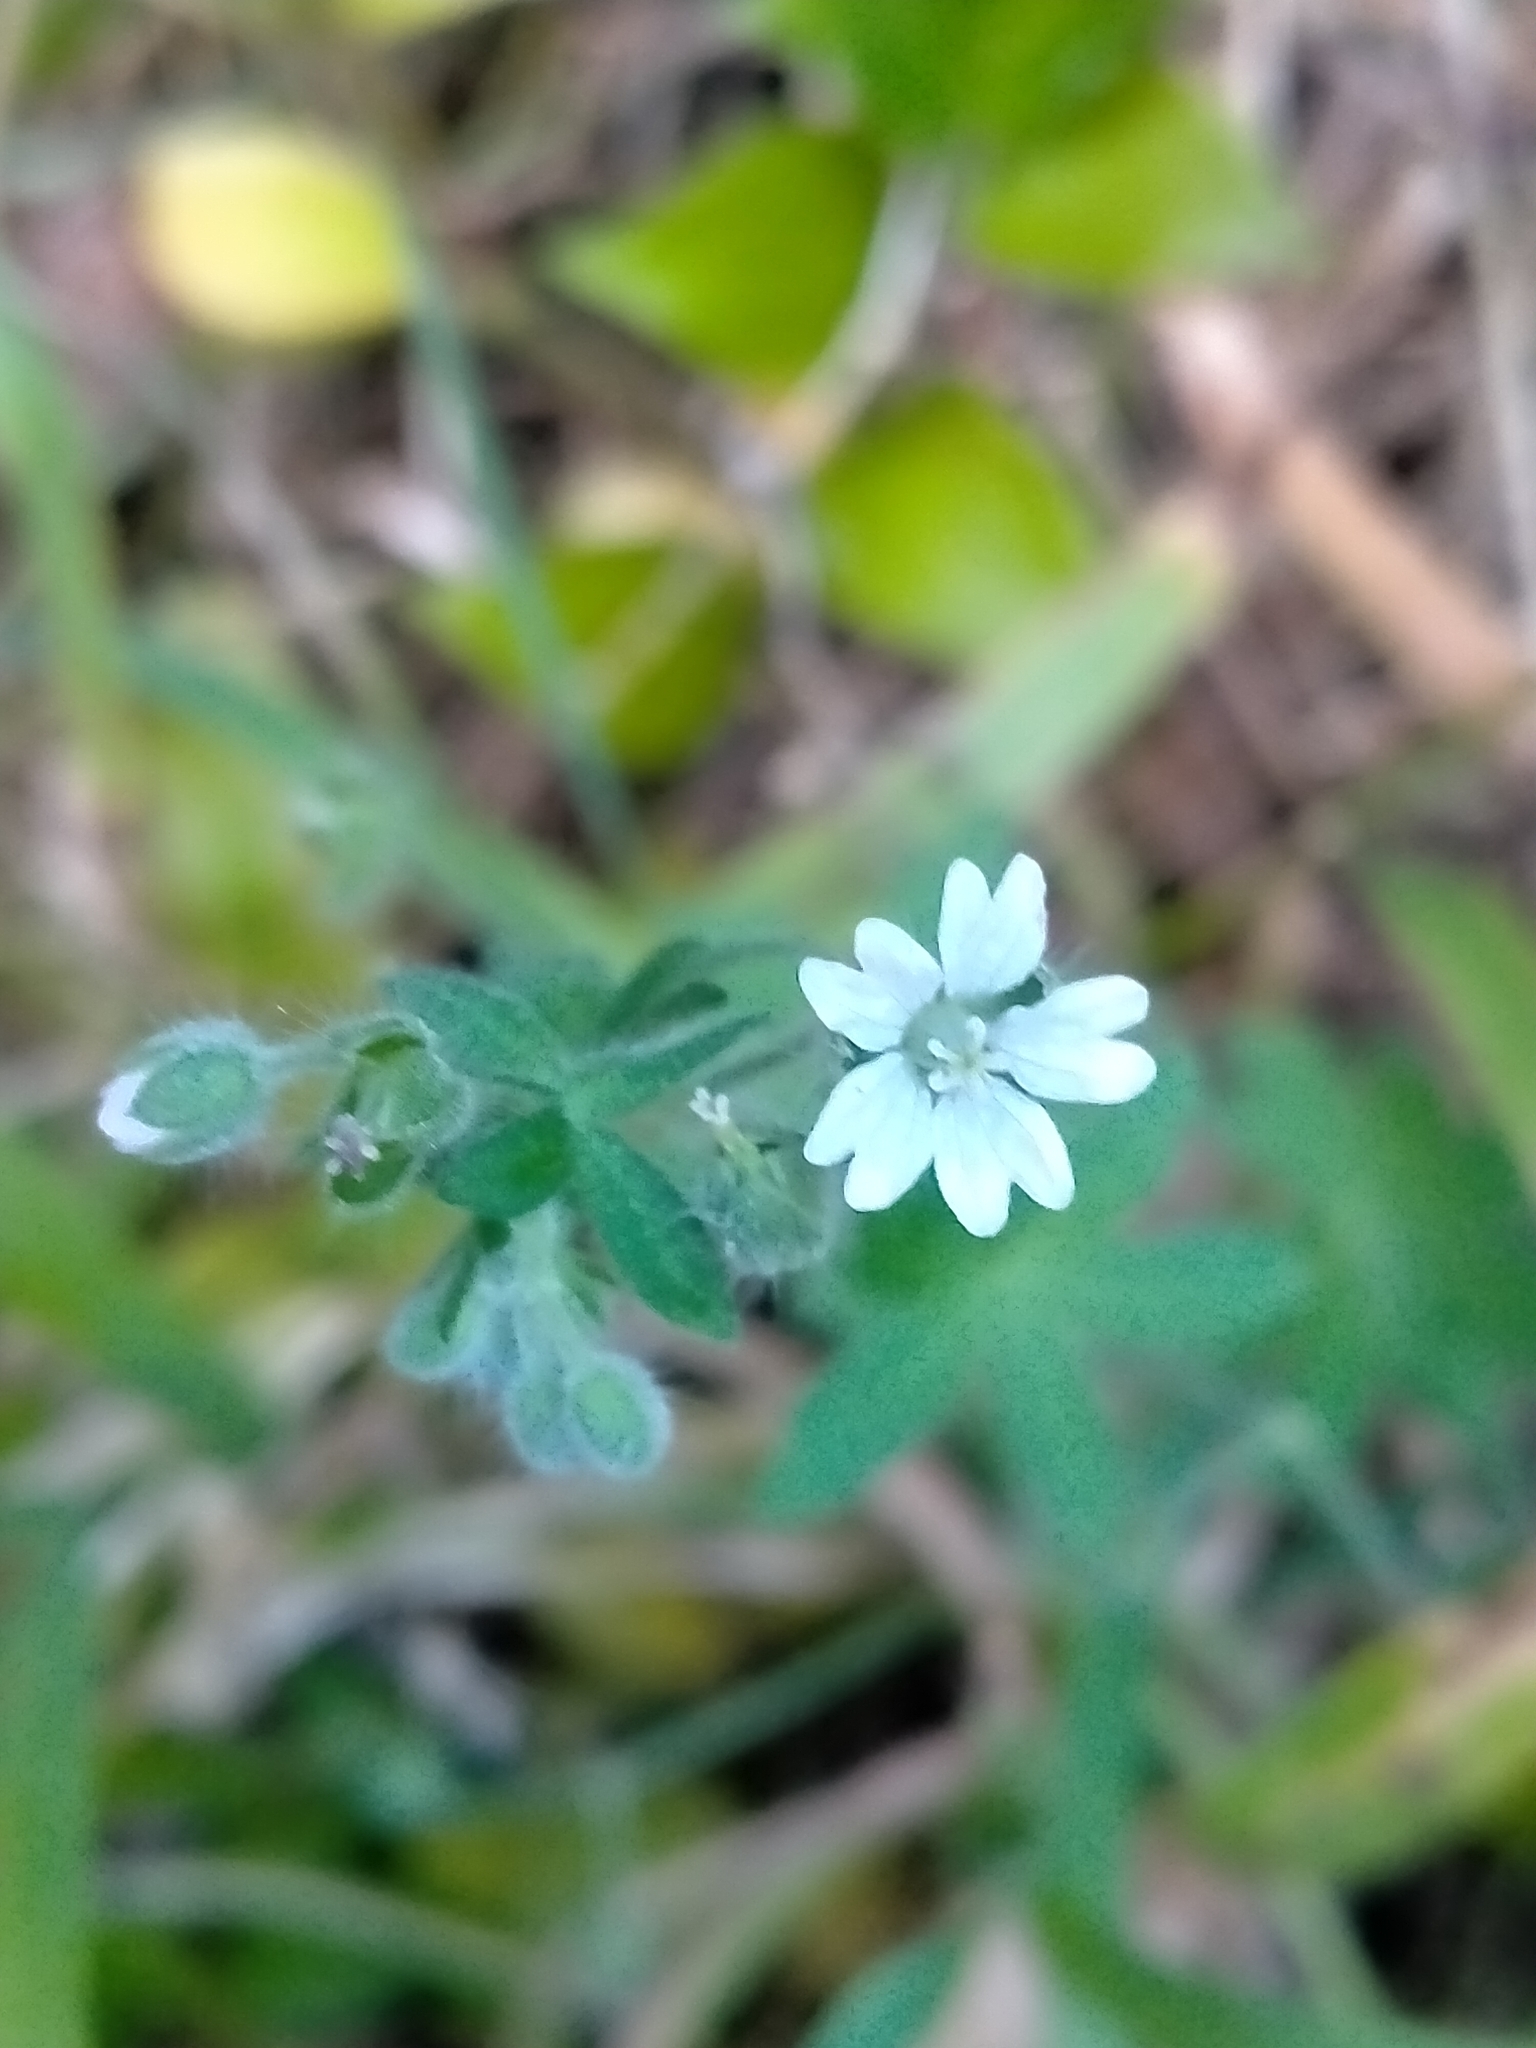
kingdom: Plantae
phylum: Tracheophyta
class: Magnoliopsida
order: Geraniales
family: Geraniaceae
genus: Geranium
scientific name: Geranium molle
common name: Dove's-foot crane's-bill
